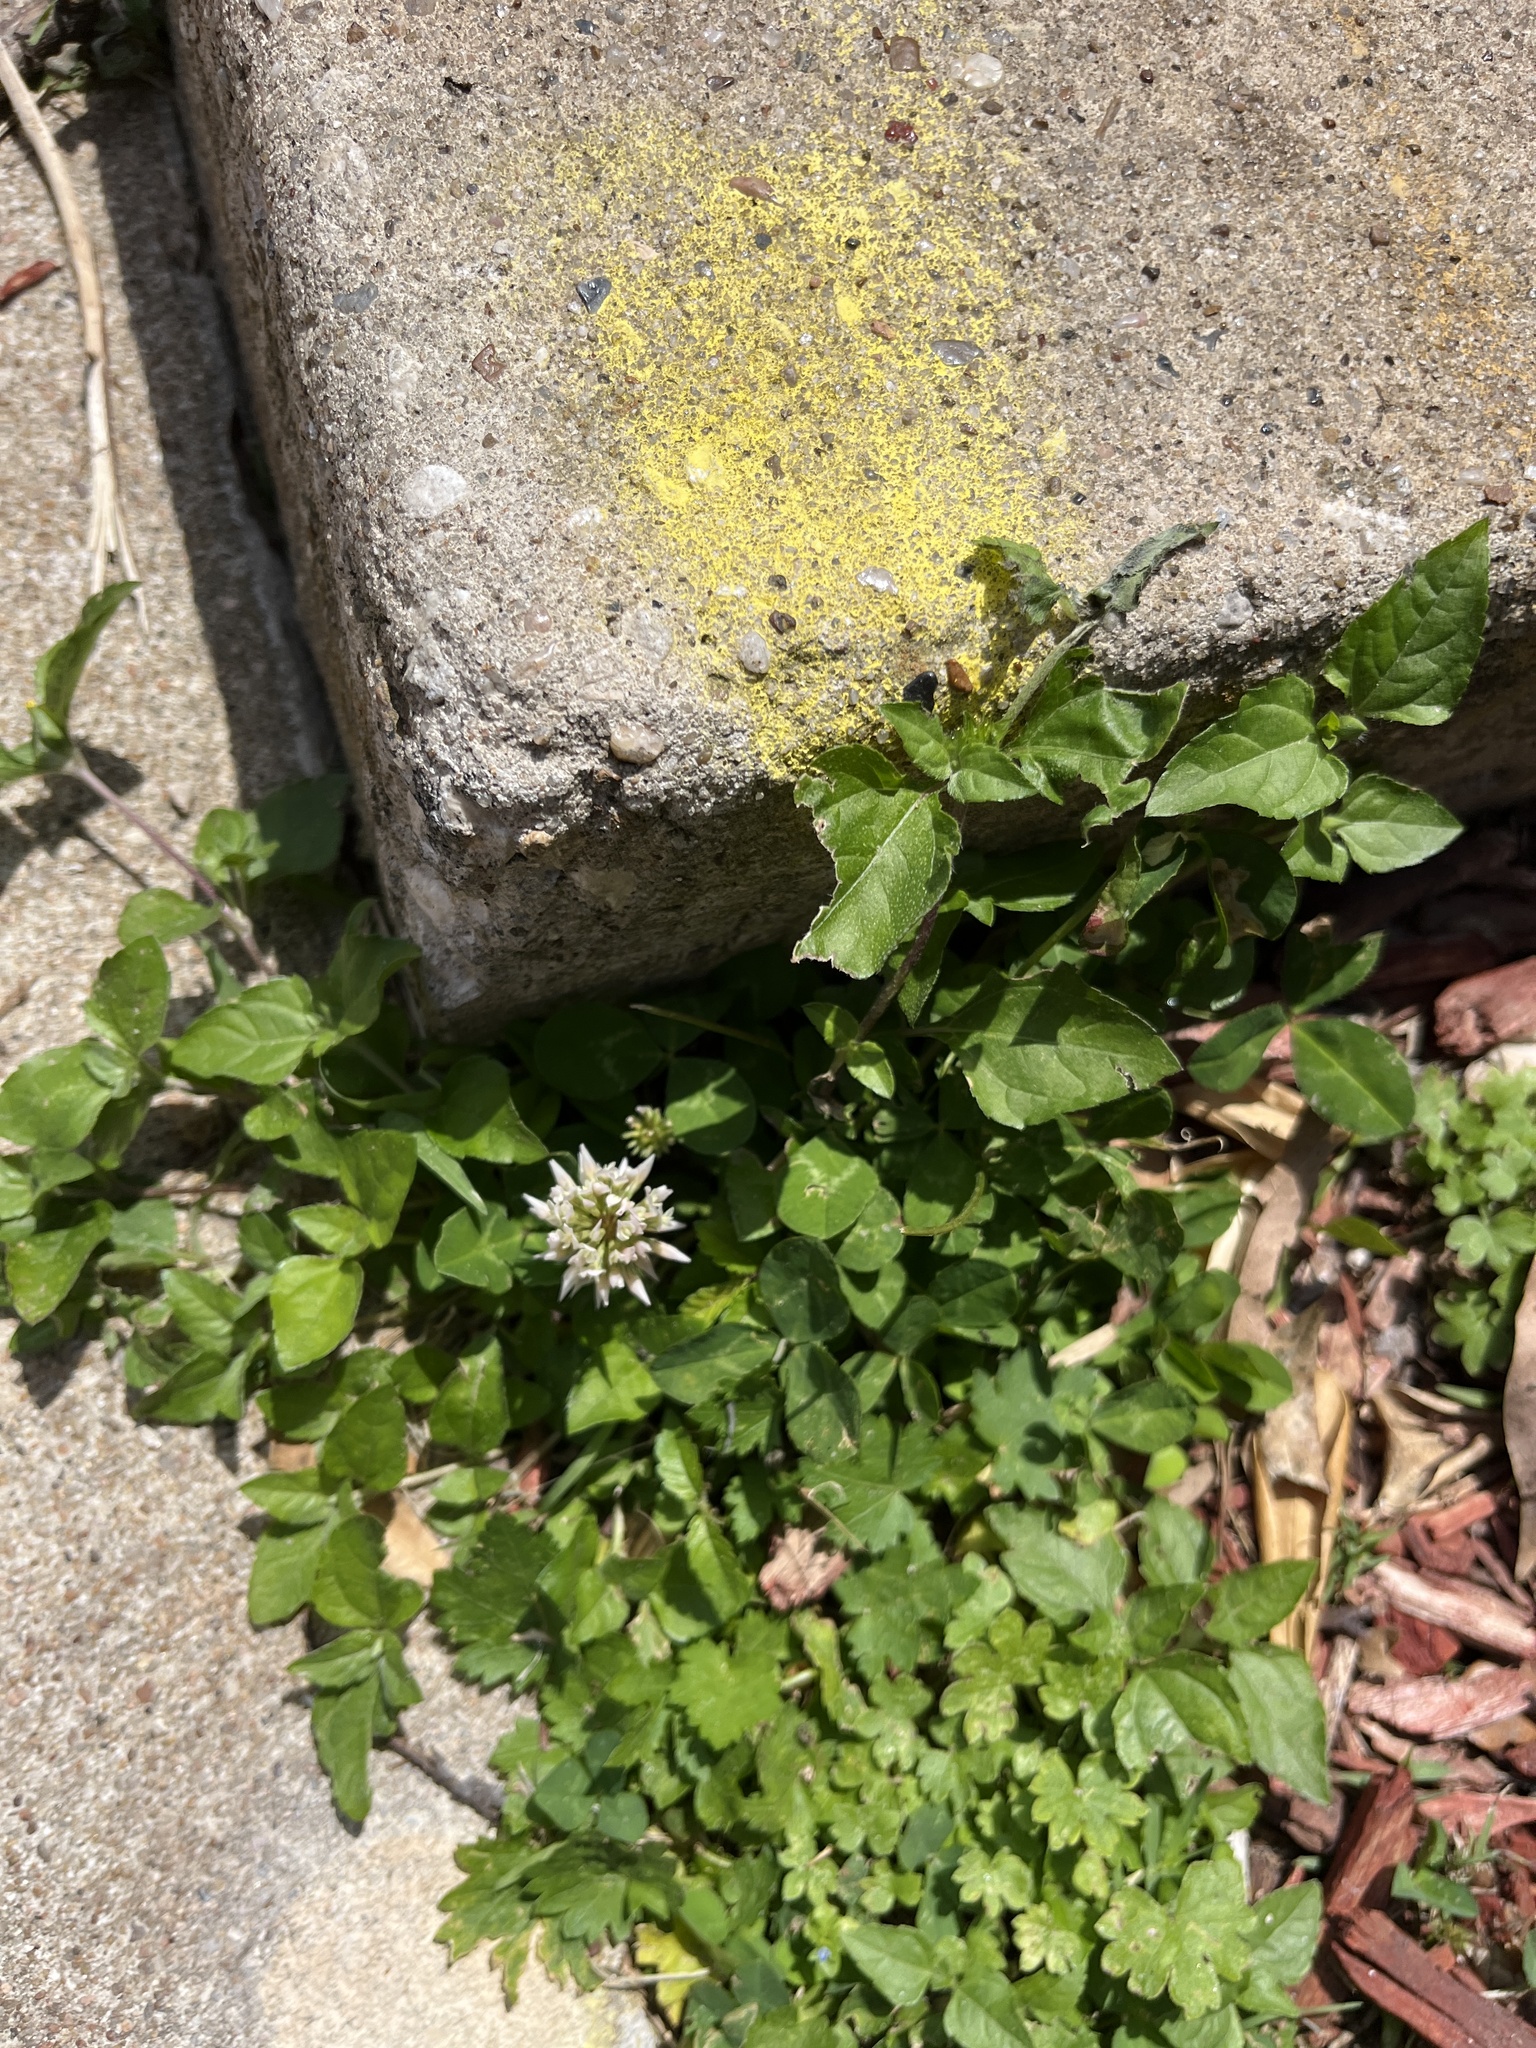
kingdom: Plantae
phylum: Tracheophyta
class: Magnoliopsida
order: Fabales
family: Fabaceae
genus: Trifolium
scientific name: Trifolium repens
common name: White clover
